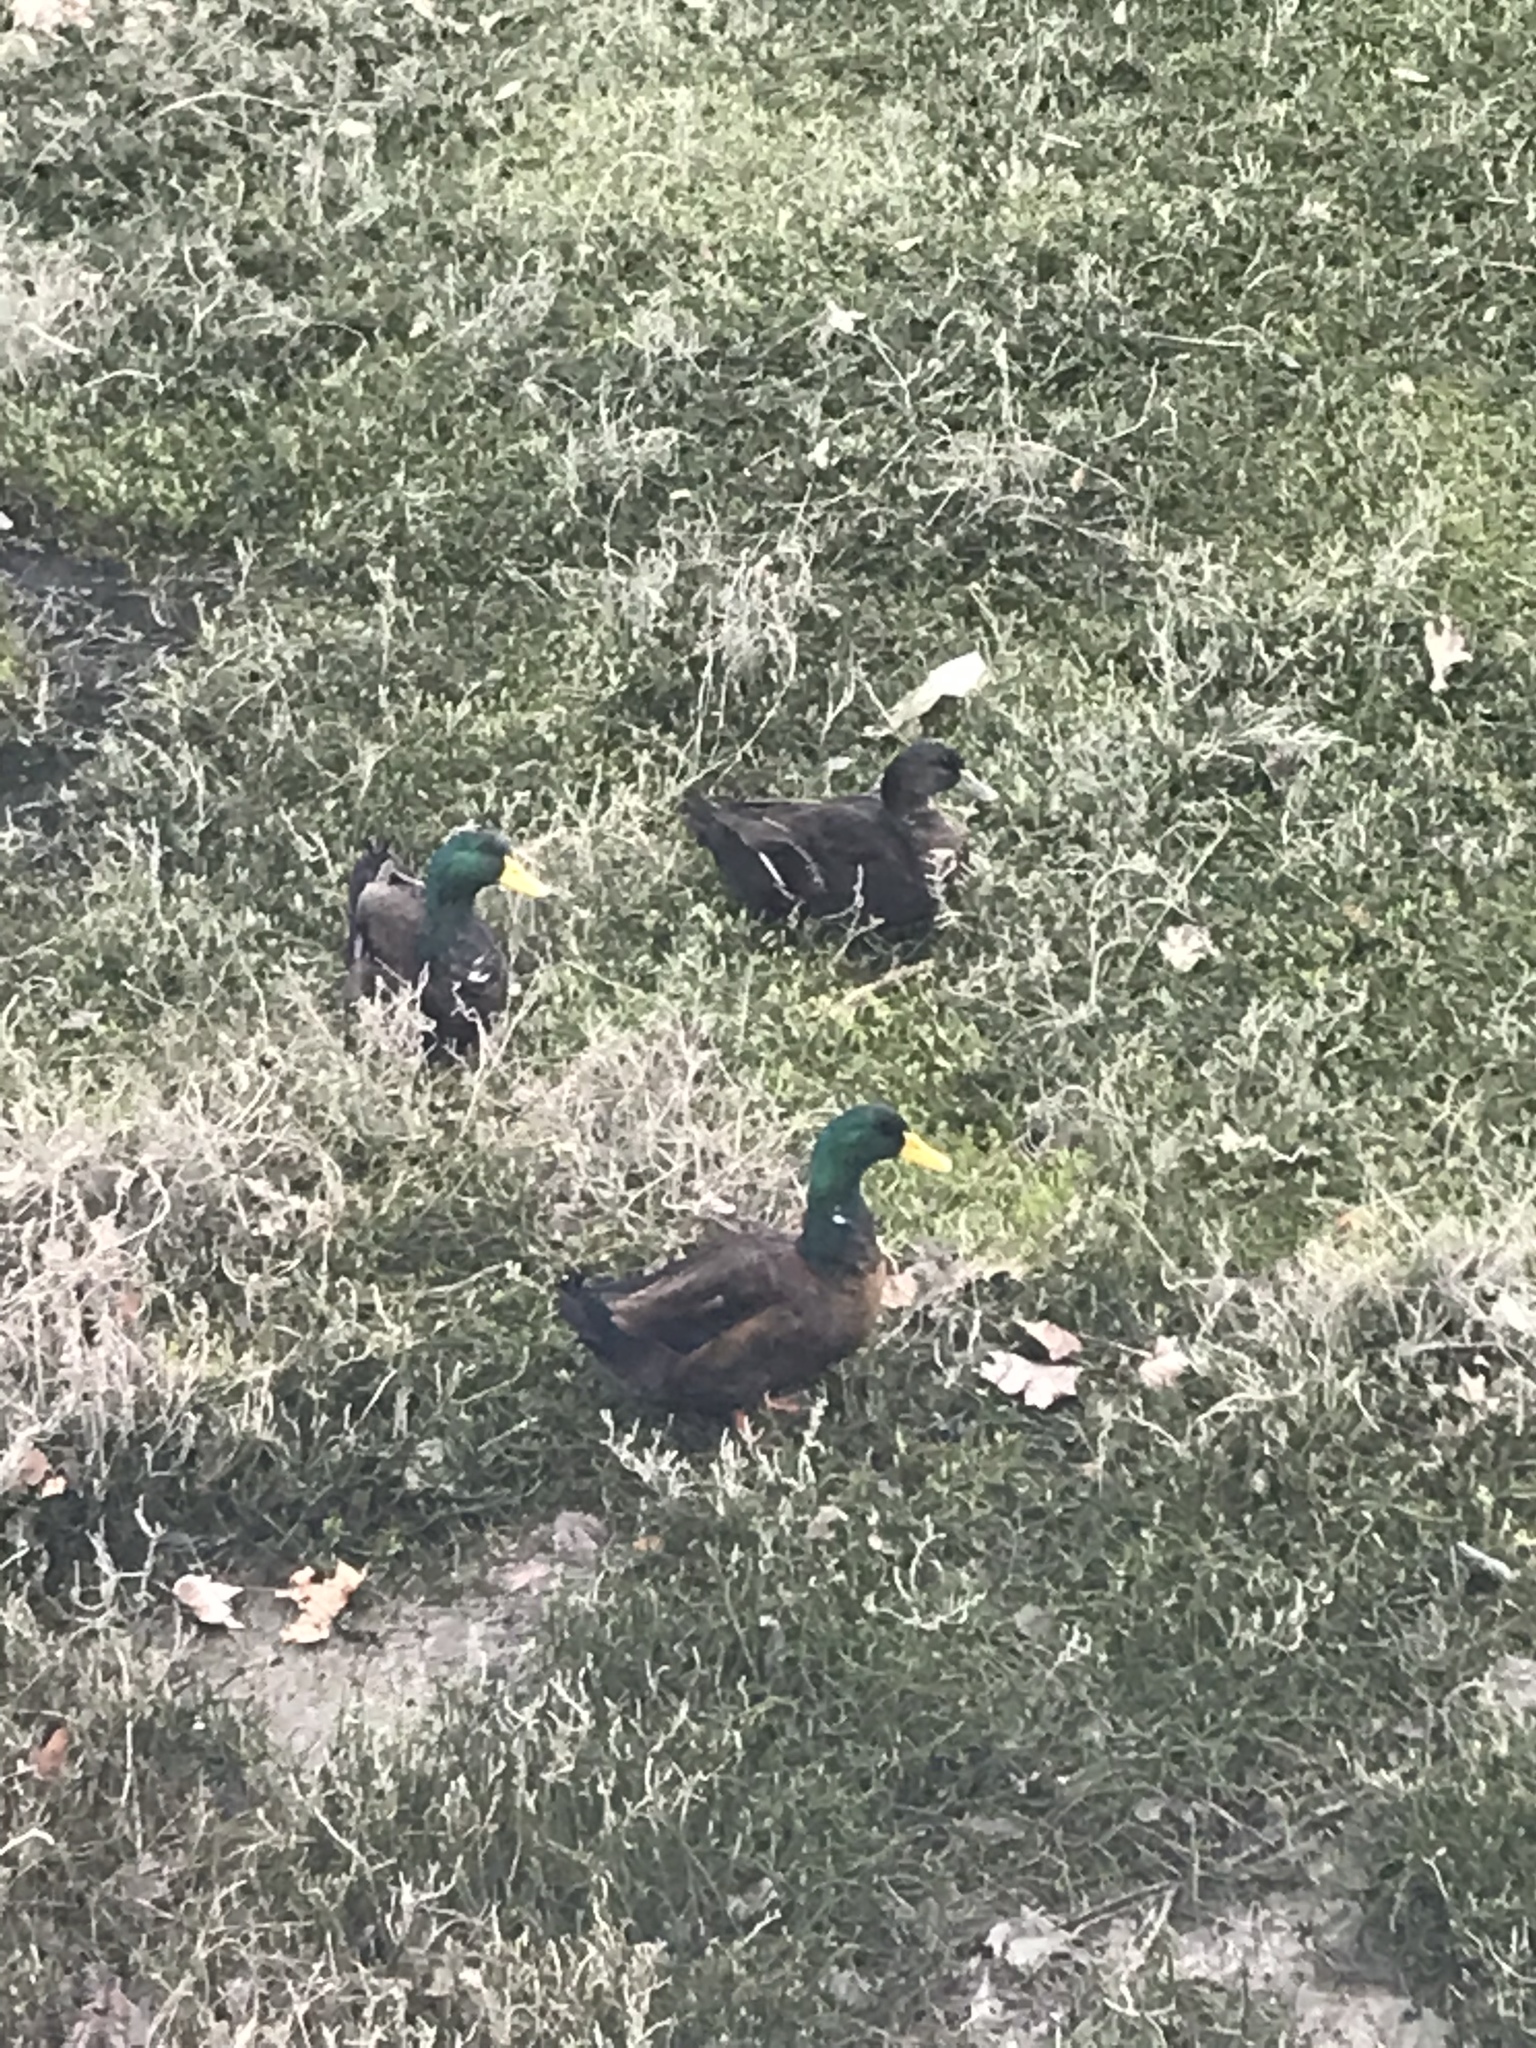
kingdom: Animalia
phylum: Chordata
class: Aves
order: Anseriformes
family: Anatidae
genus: Anas
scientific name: Anas platyrhynchos
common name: Mallard
